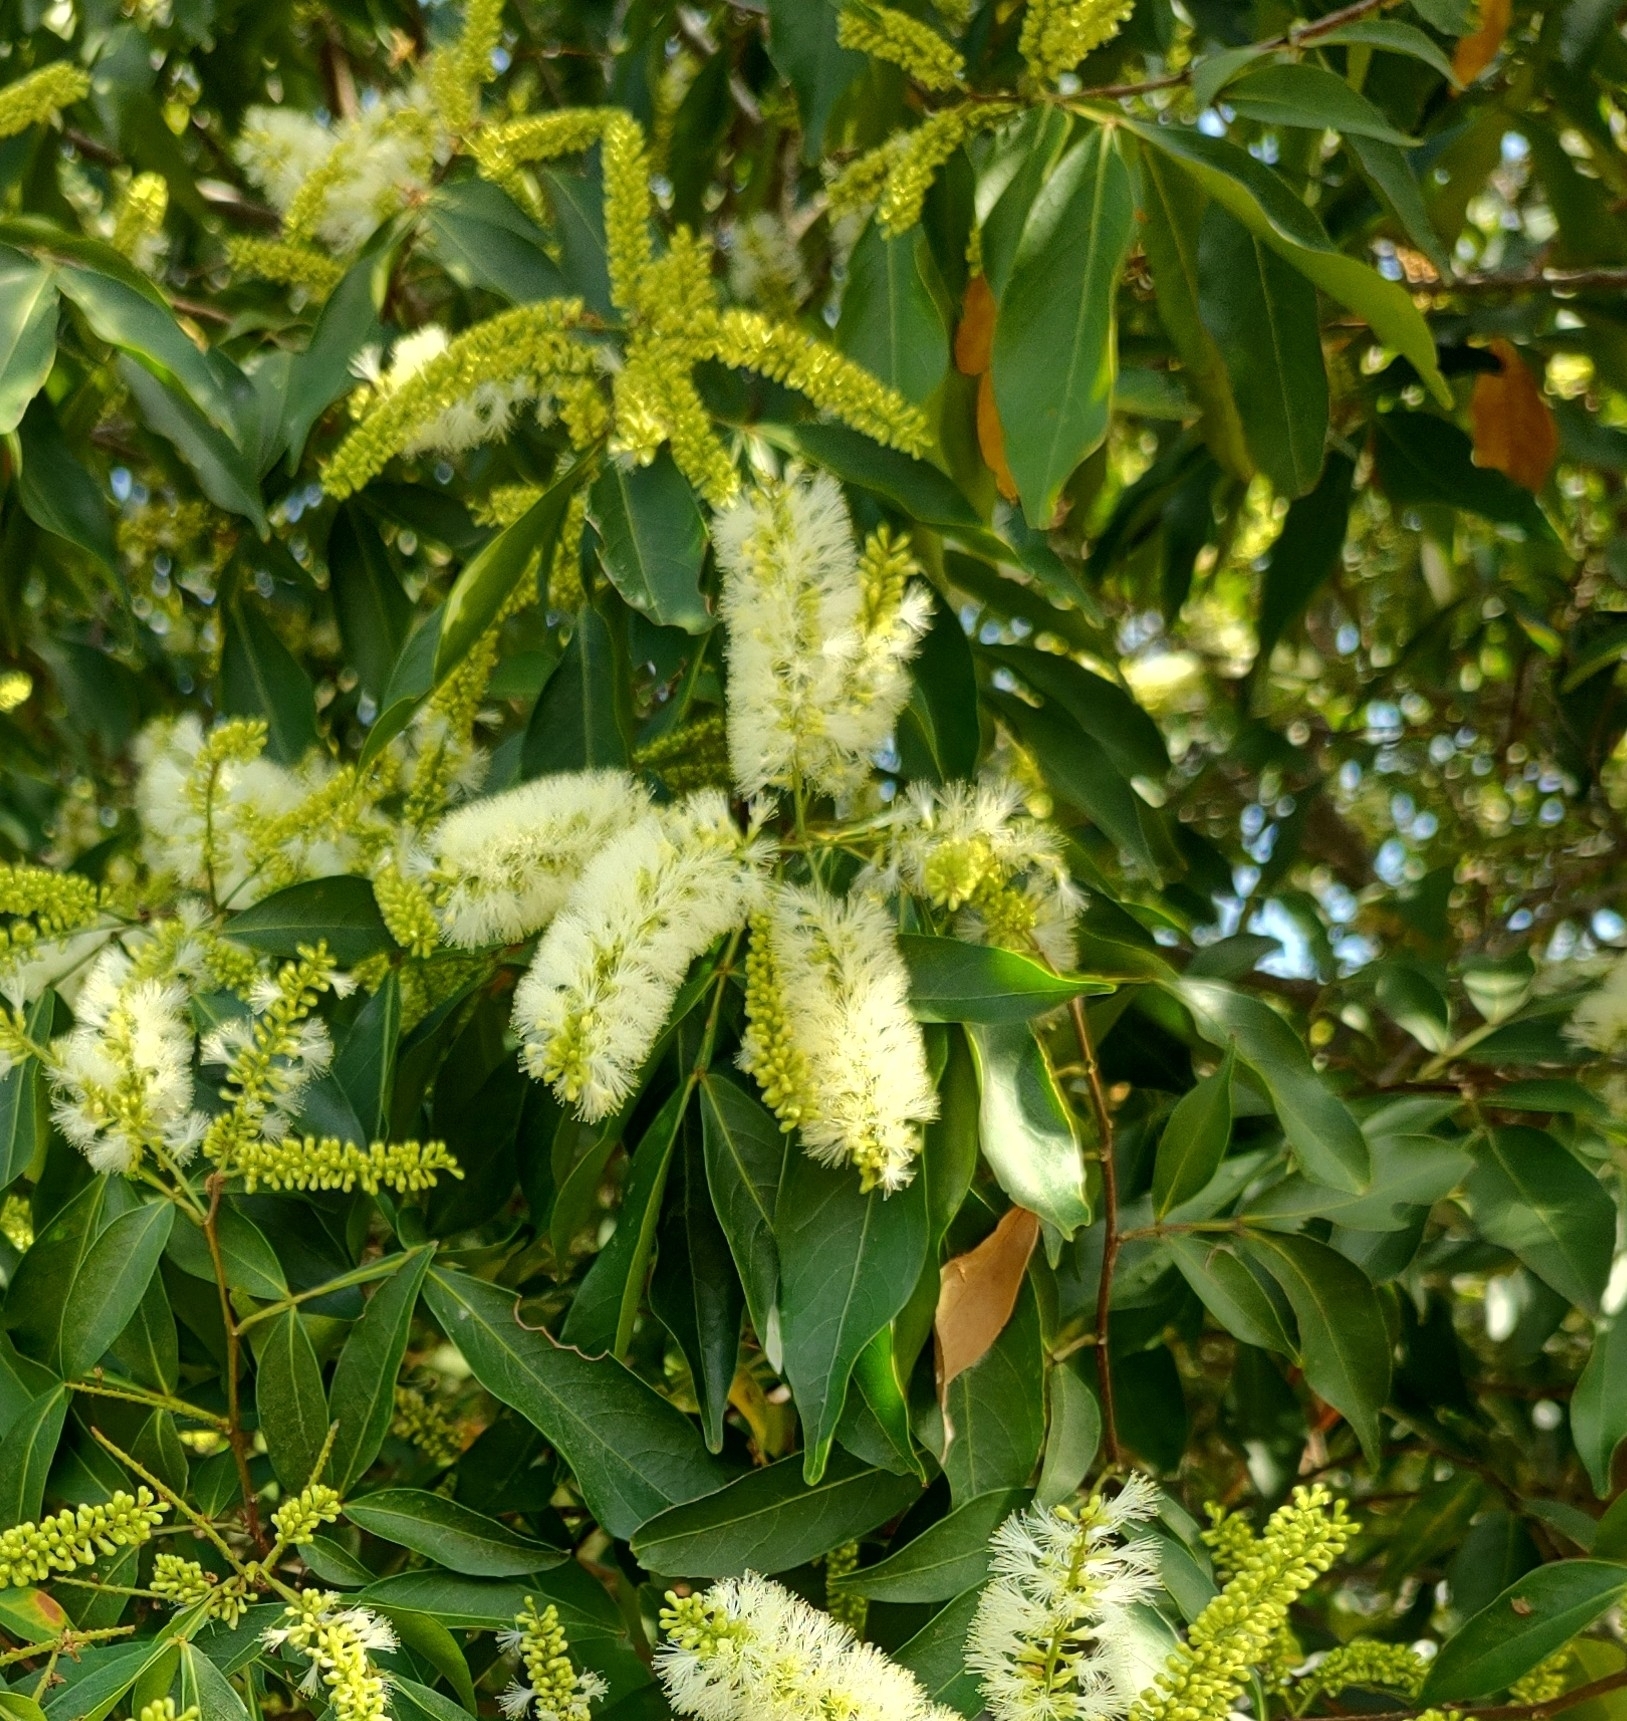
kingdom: Plantae
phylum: Tracheophyta
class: Magnoliopsida
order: Fabales
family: Fabaceae
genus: Inga
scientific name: Inga marginata
